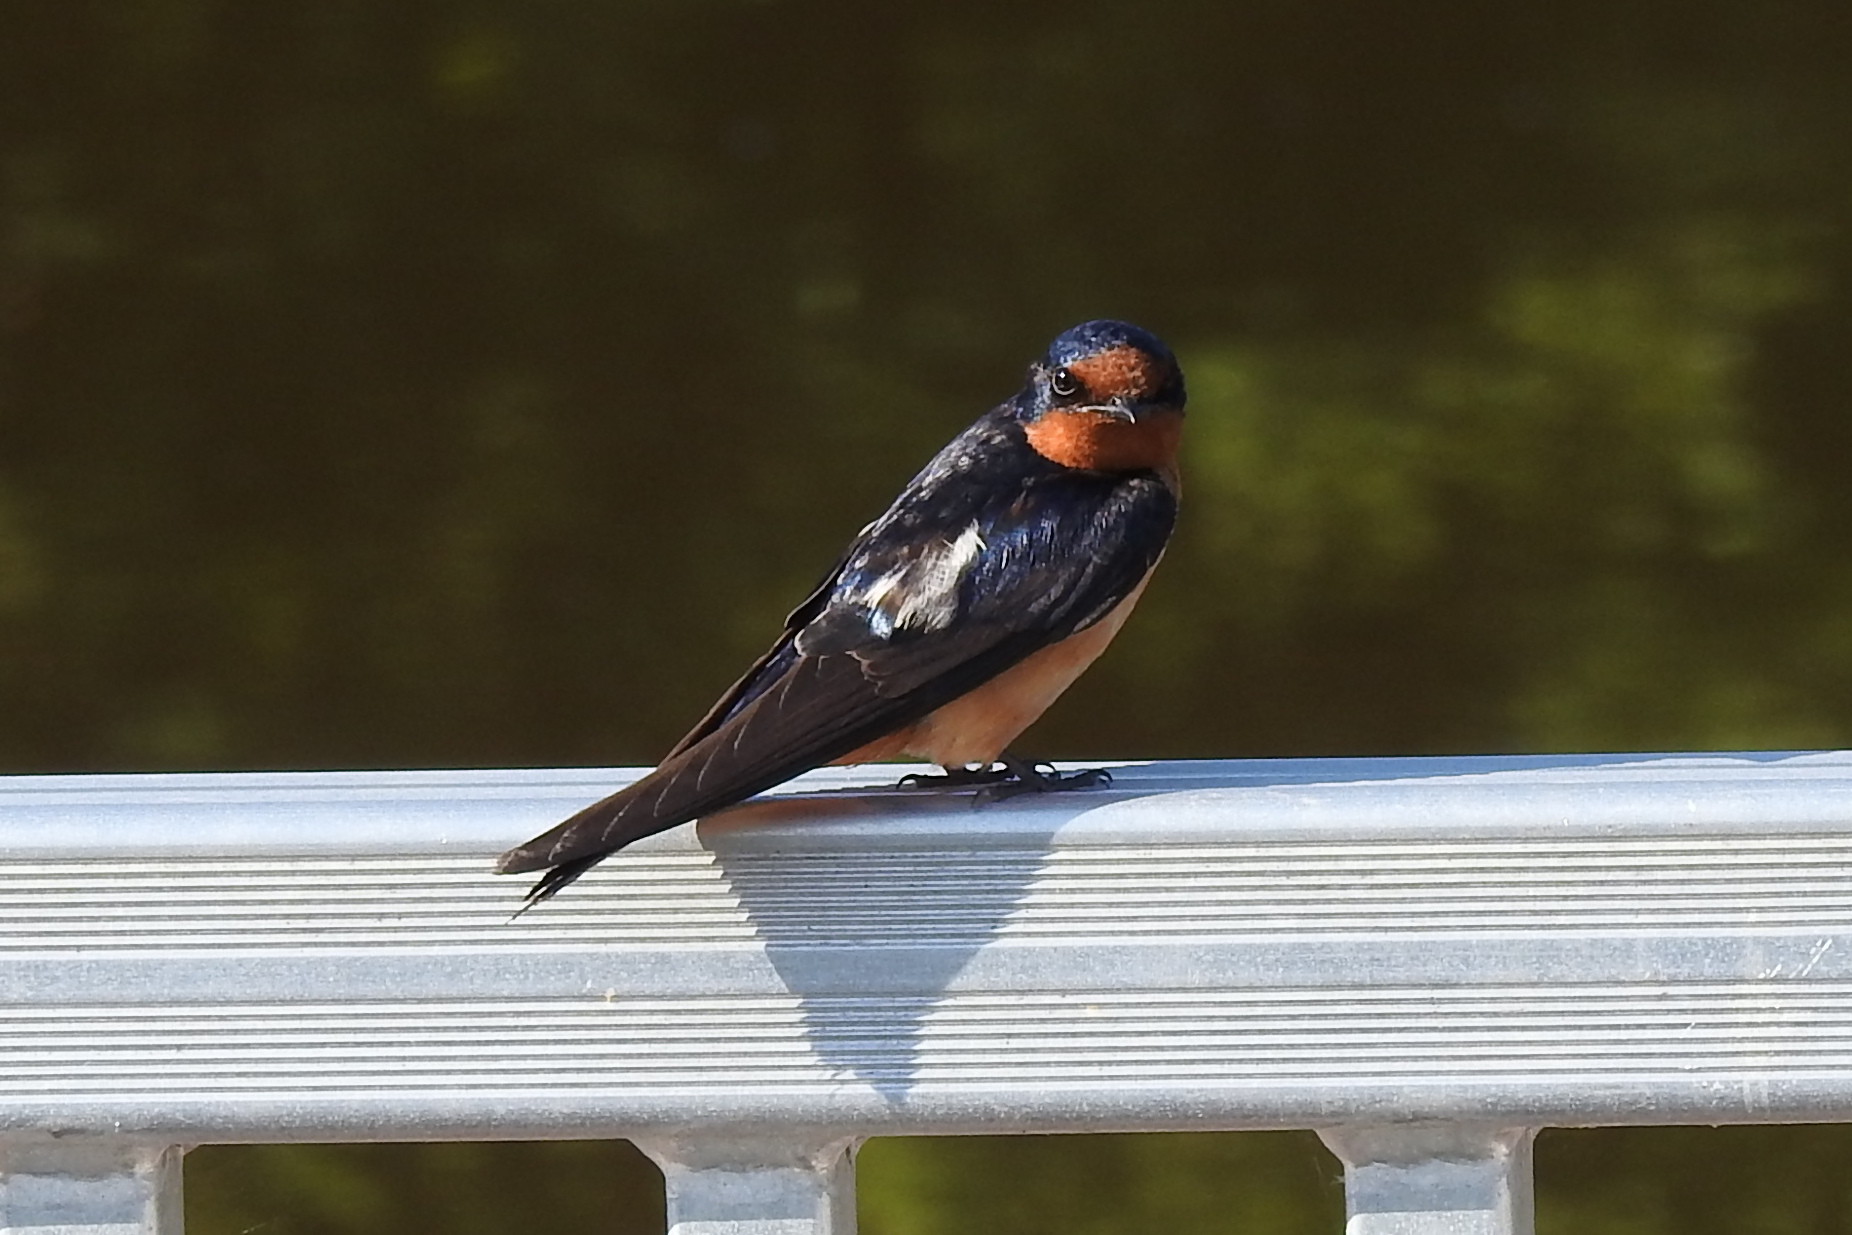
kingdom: Animalia
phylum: Chordata
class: Aves
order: Passeriformes
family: Hirundinidae
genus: Hirundo
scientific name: Hirundo rustica
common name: Barn swallow
